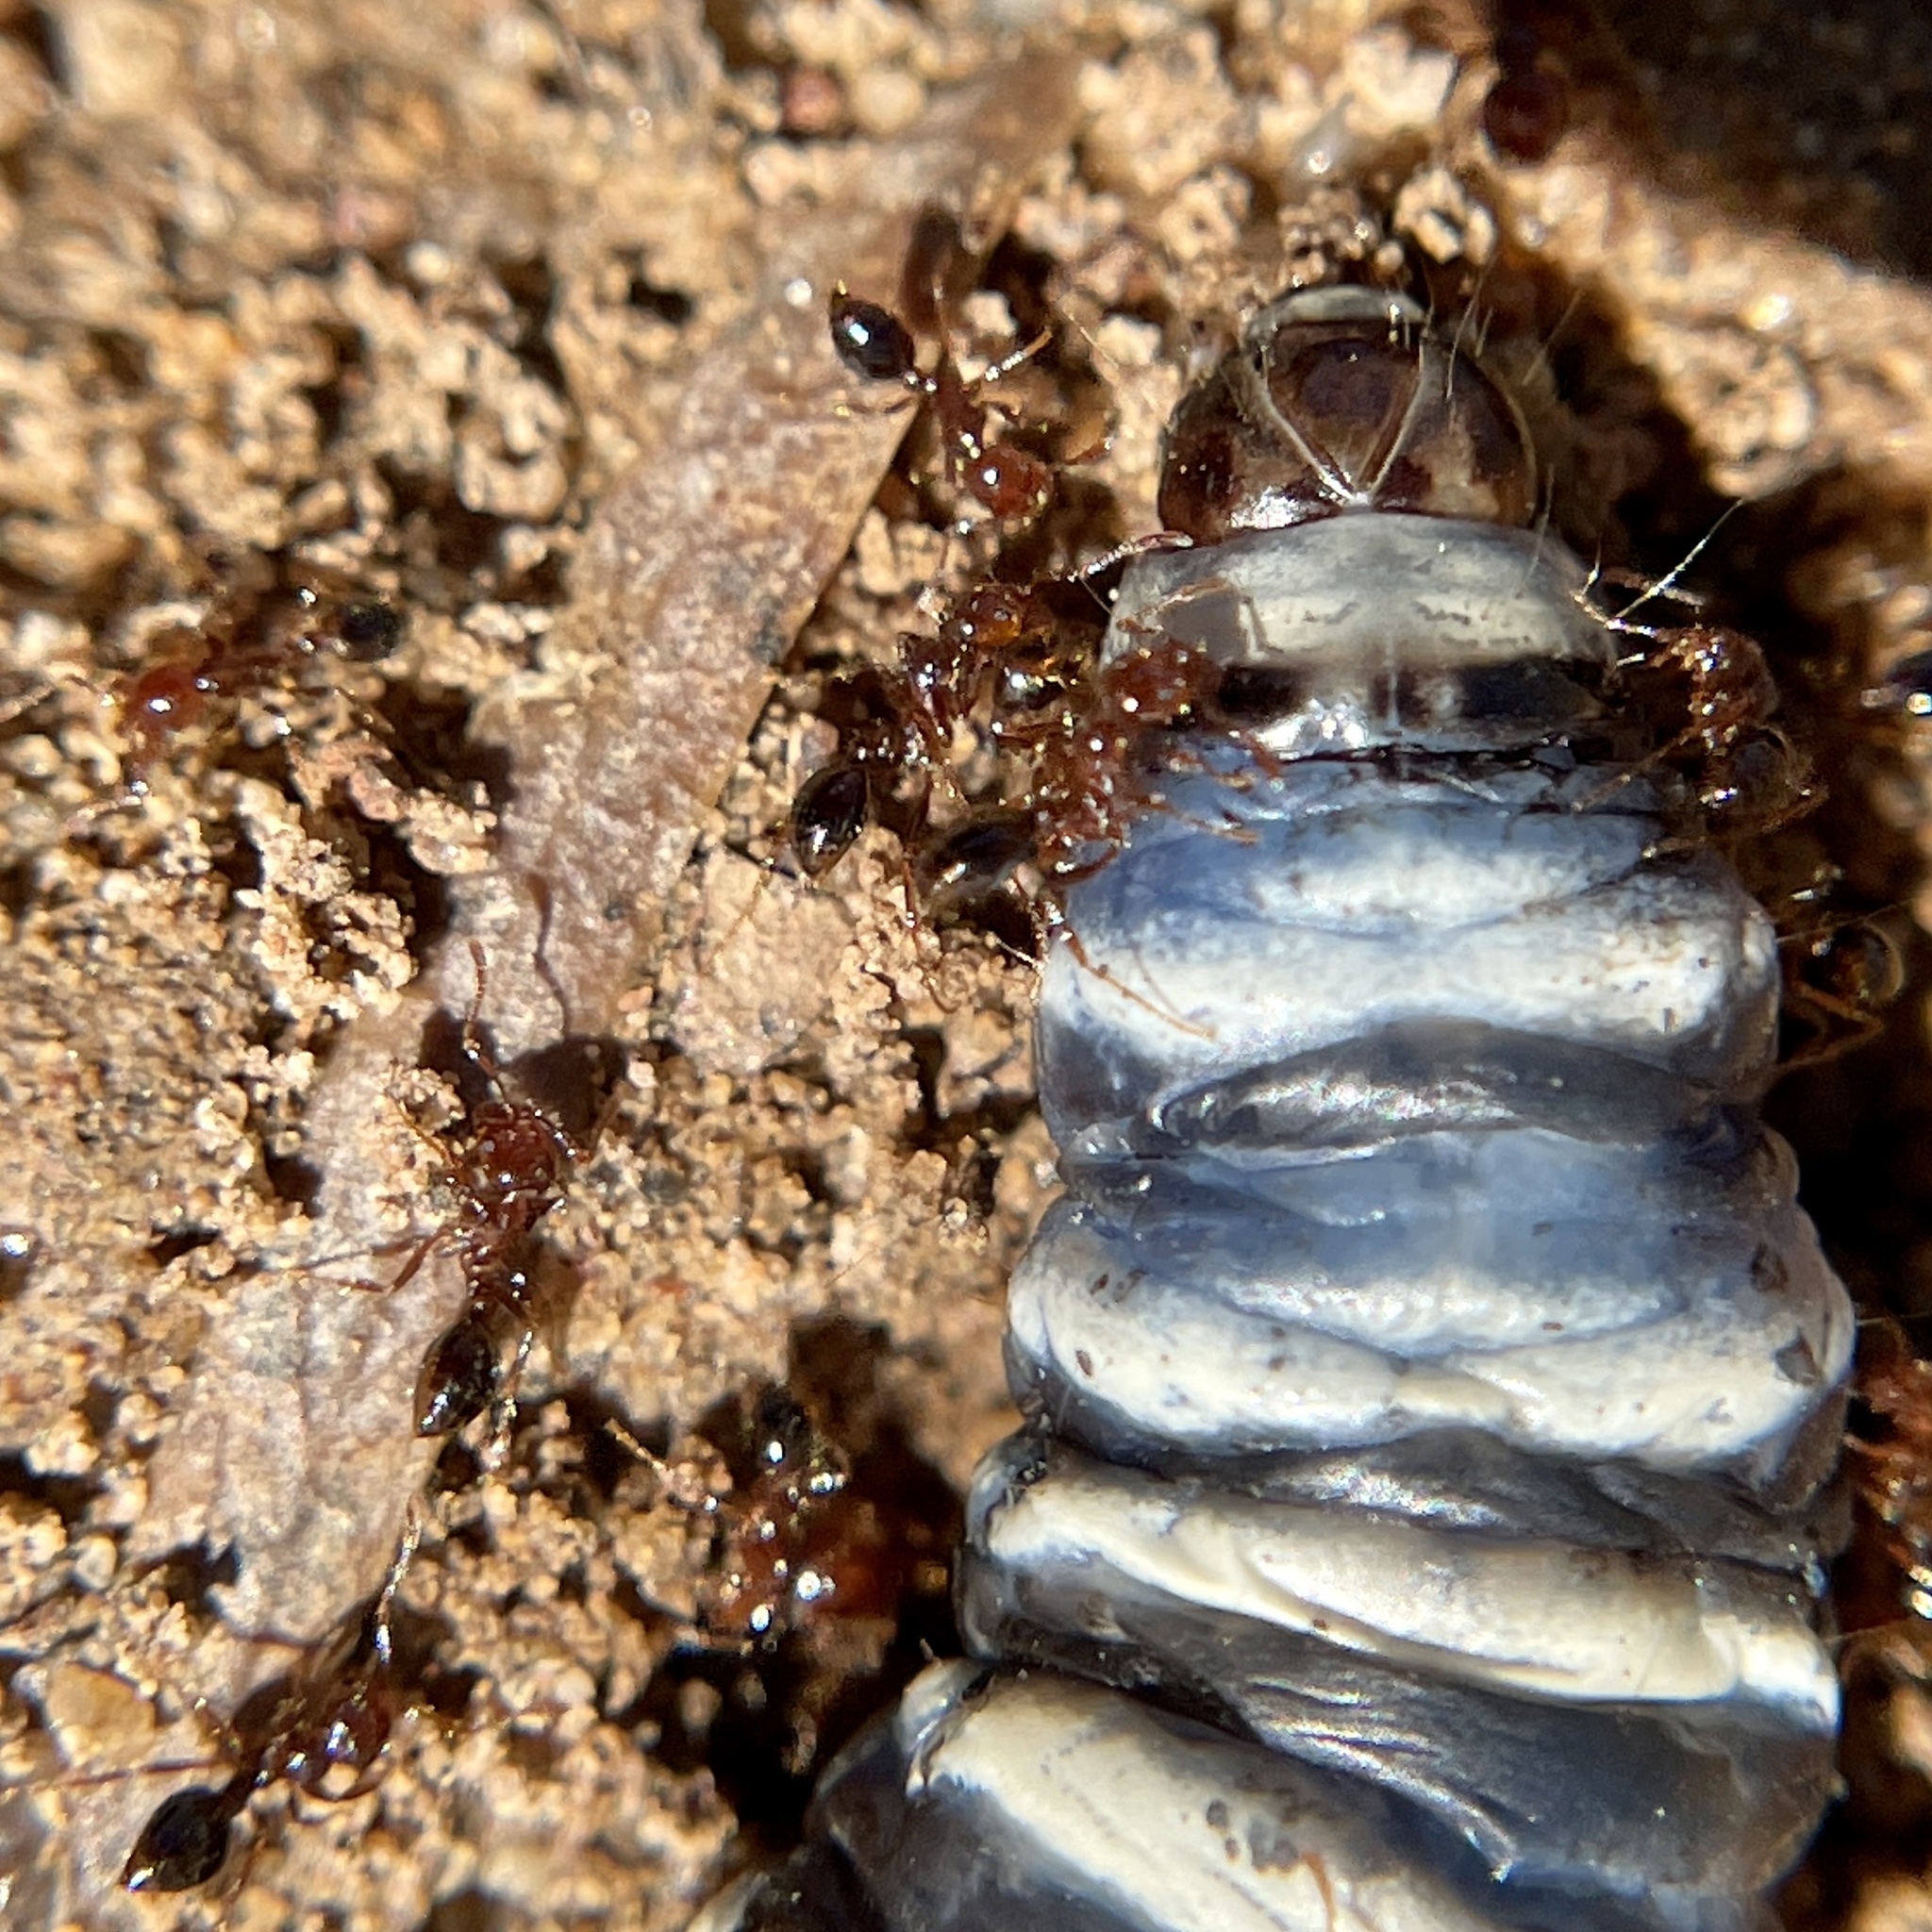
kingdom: Animalia
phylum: Arthropoda
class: Insecta
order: Hymenoptera
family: Formicidae
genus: Solenopsis
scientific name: Solenopsis invicta
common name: Red imported fire ant
